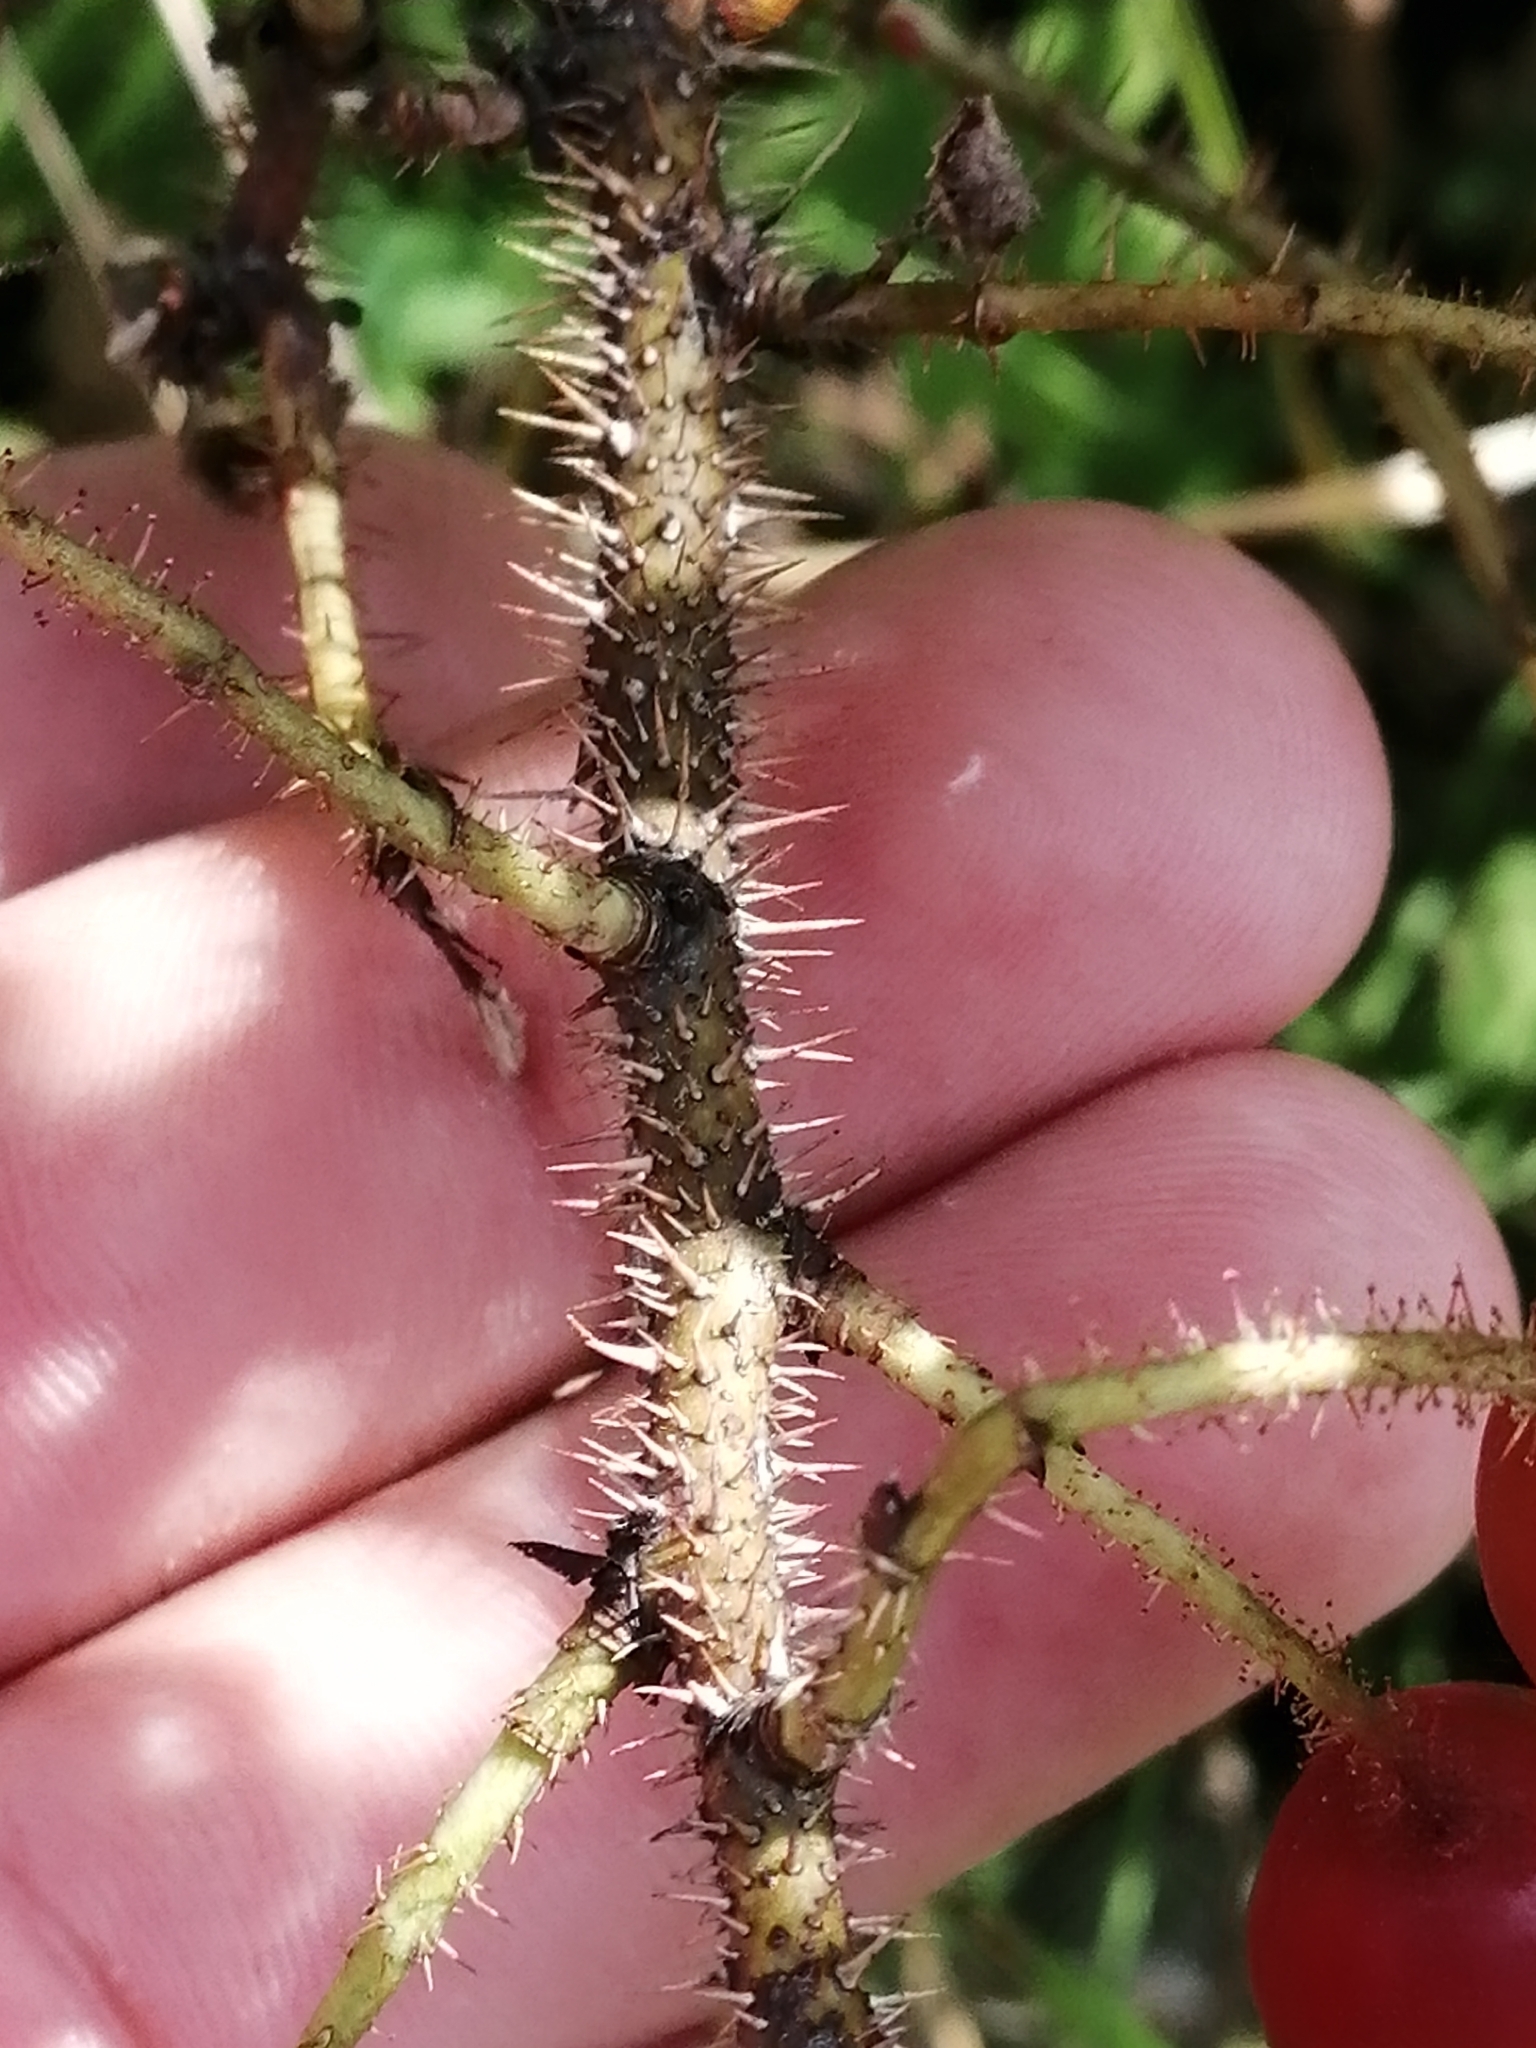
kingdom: Plantae
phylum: Tracheophyta
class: Magnoliopsida
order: Rosales
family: Rosaceae
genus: Rosa
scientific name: Rosa acicularis
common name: Prickly rose
